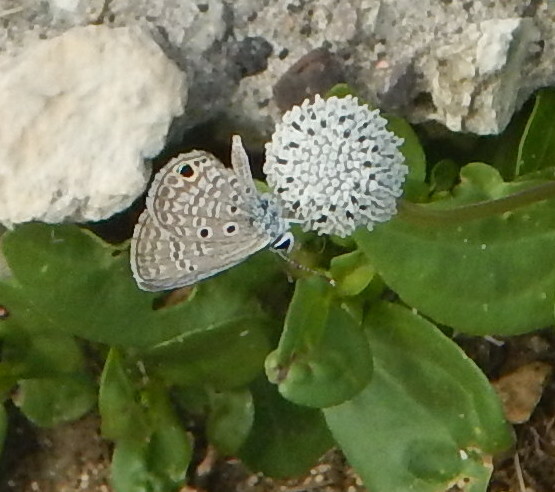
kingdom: Animalia
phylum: Arthropoda
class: Insecta
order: Lepidoptera
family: Lycaenidae
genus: Hemiargus
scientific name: Hemiargus ceraunus
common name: Ceraunus blue
